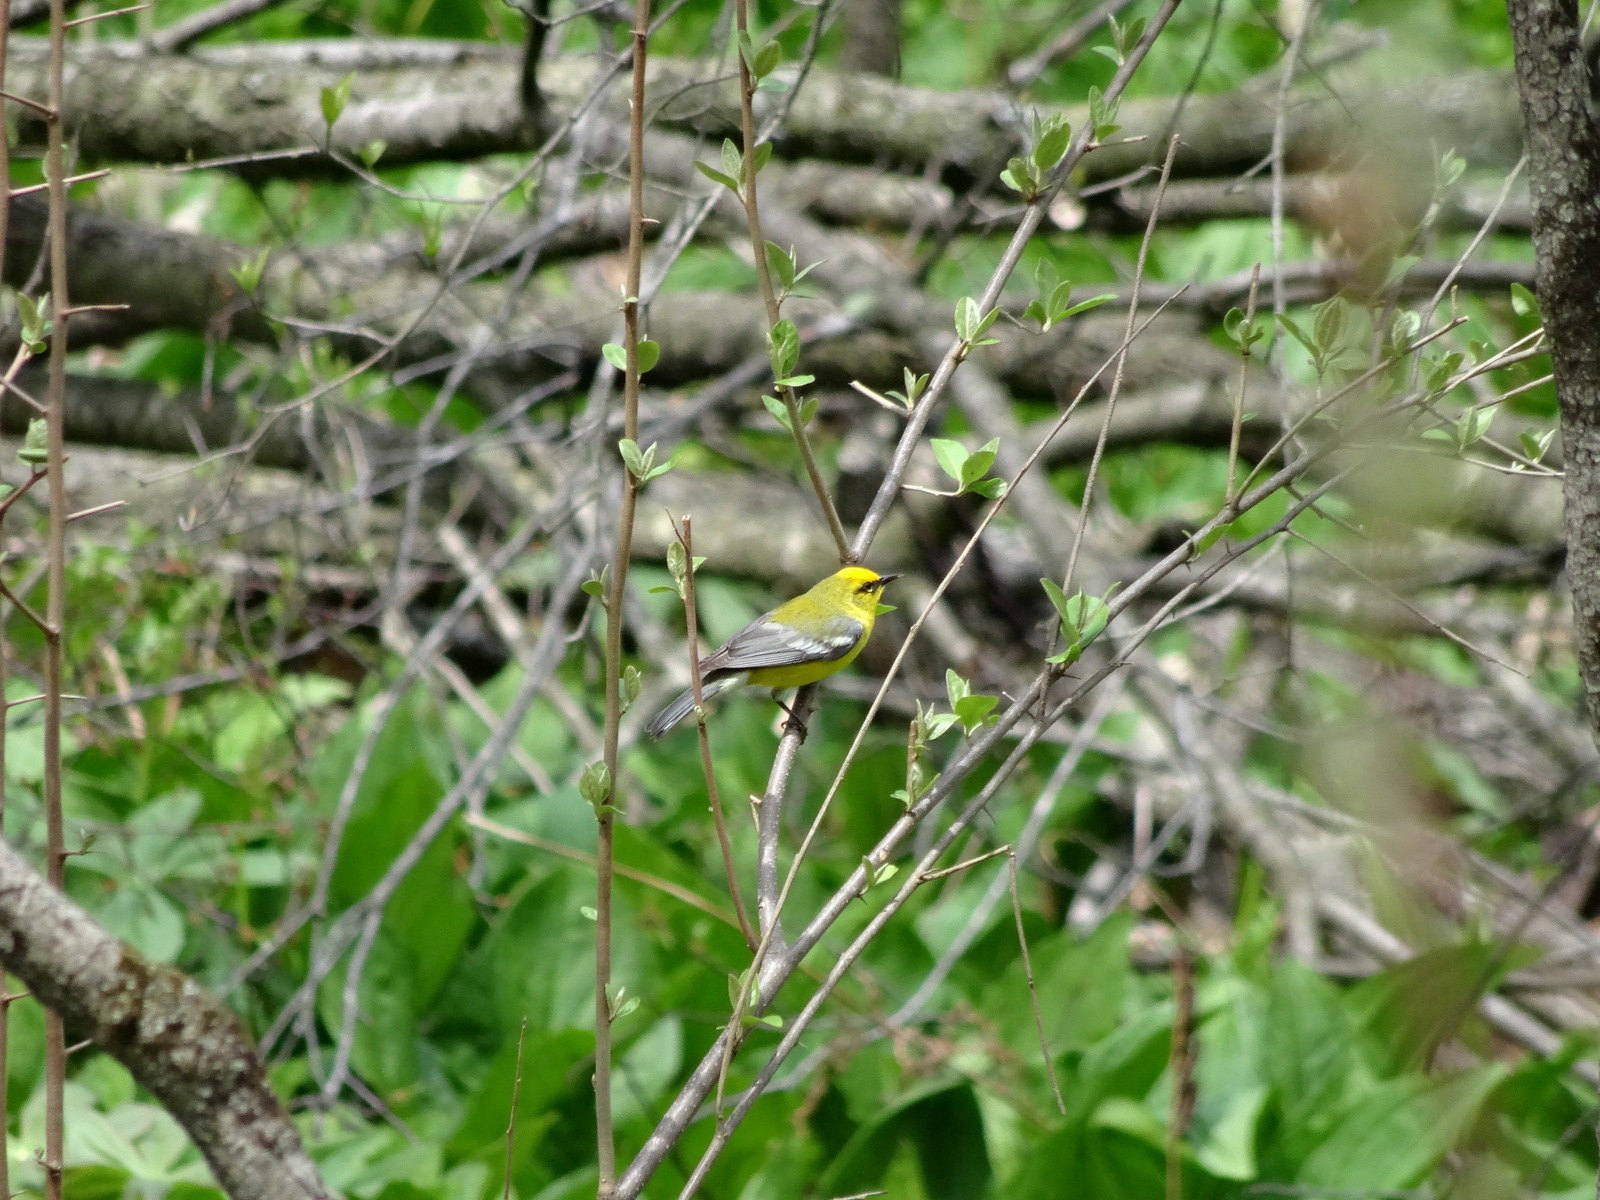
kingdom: Animalia
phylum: Chordata
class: Aves
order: Passeriformes
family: Parulidae
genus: Vermivora
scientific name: Vermivora cyanoptera
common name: Blue-winged warbler
